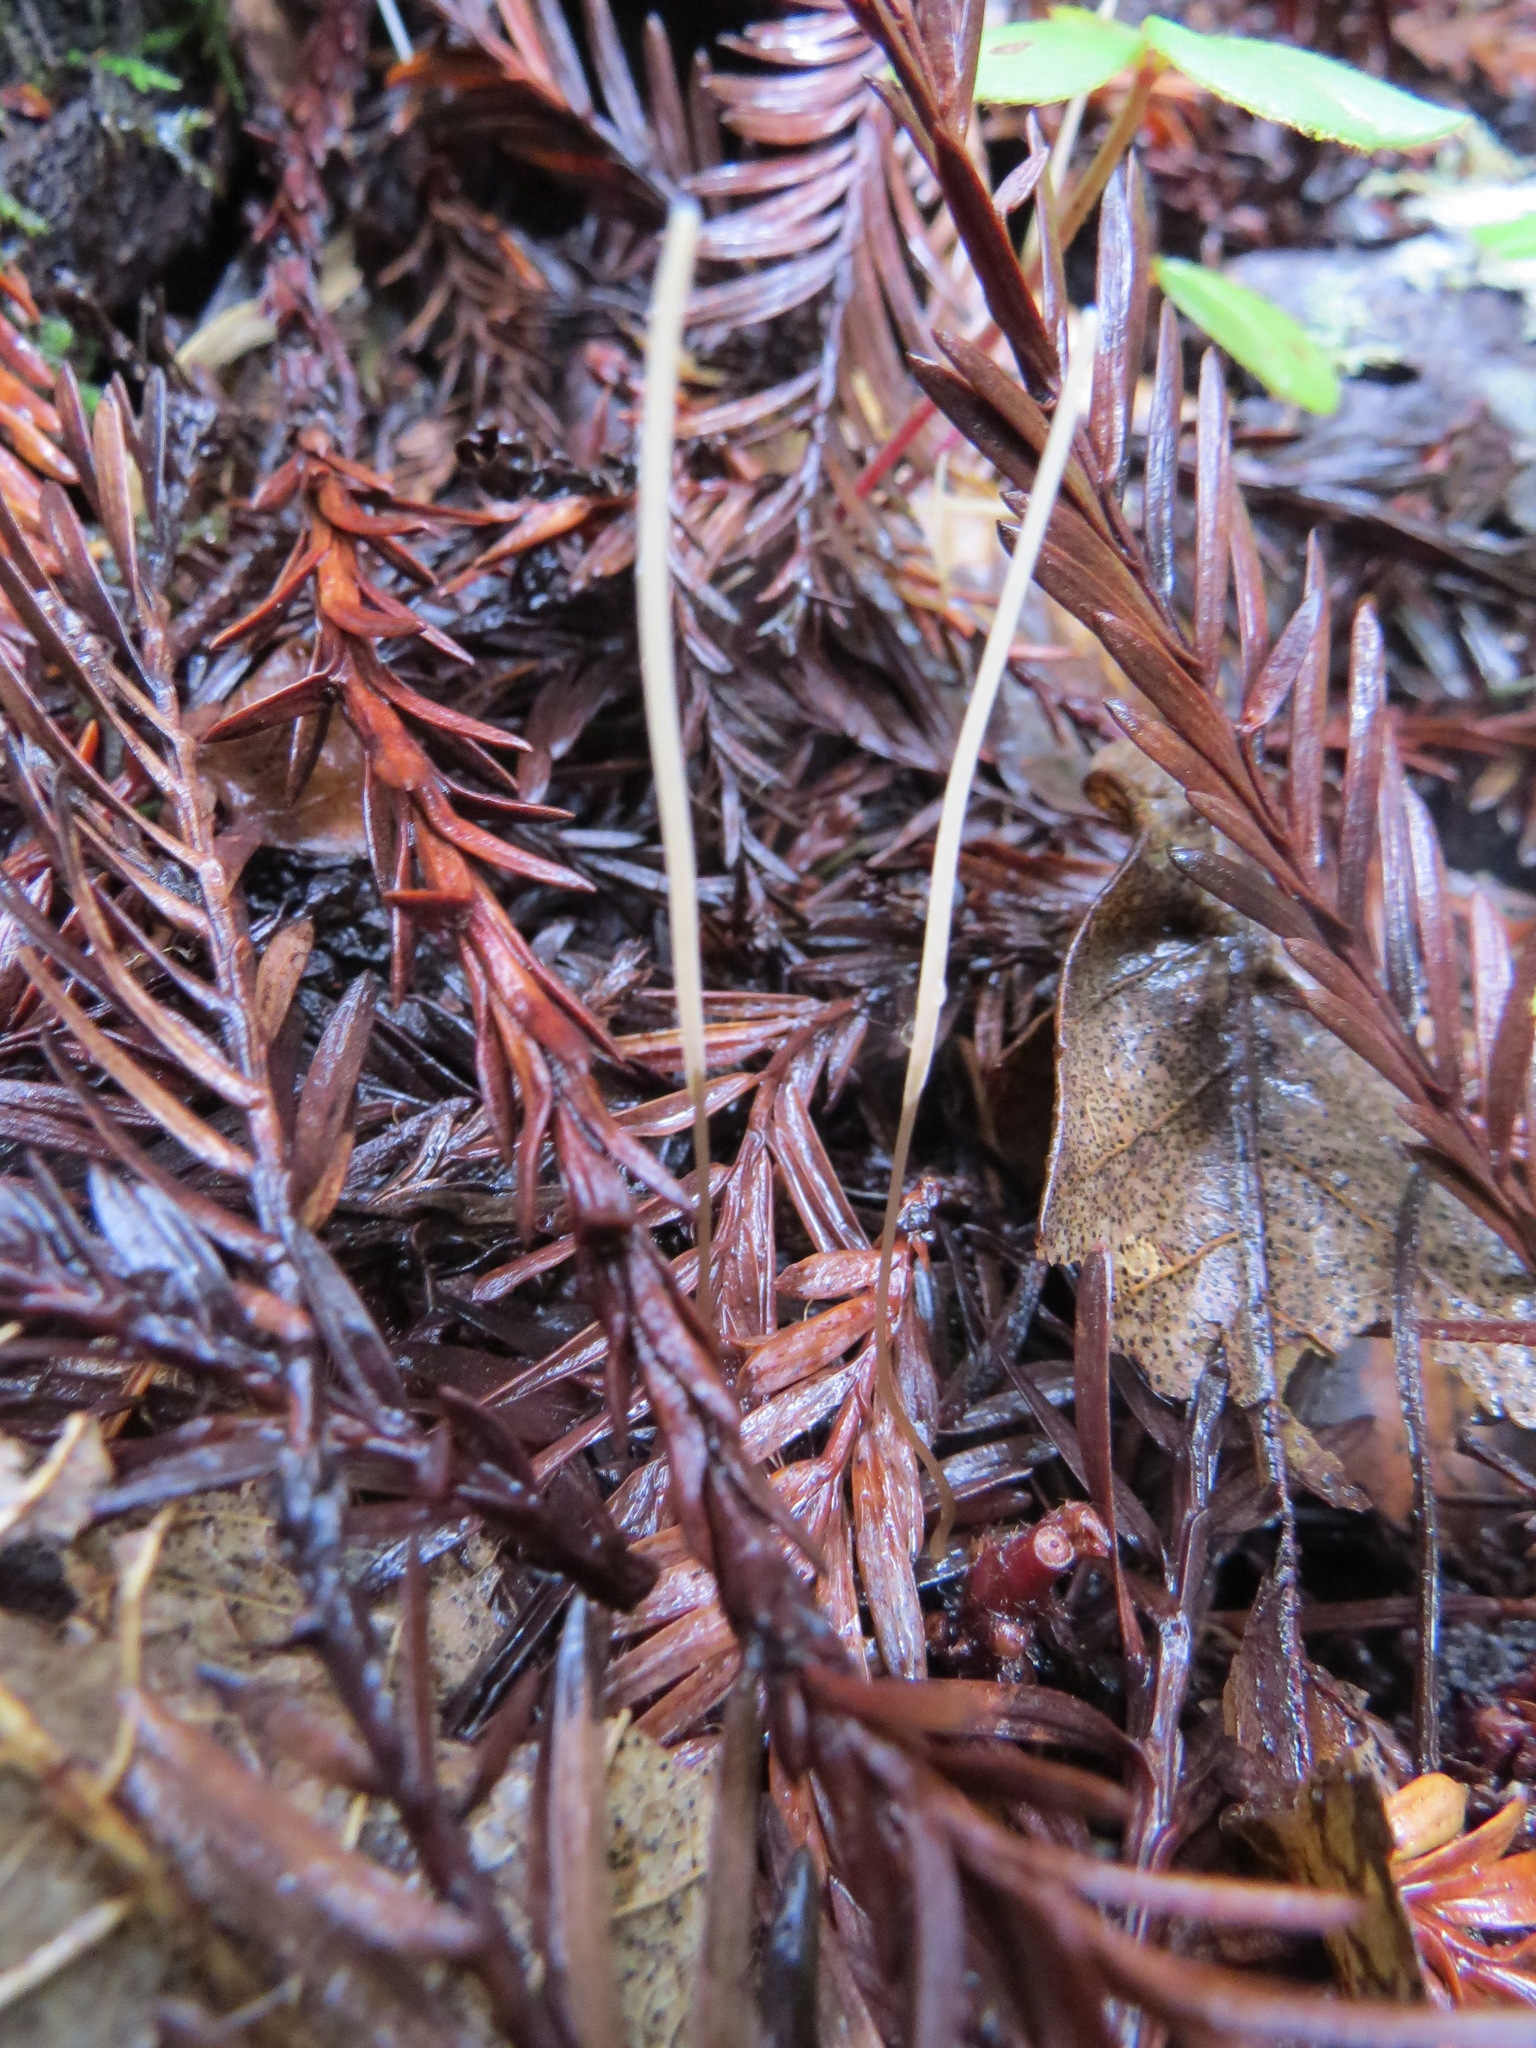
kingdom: Fungi
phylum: Basidiomycota
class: Agaricomycetes
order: Agaricales
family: Typhulaceae
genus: Typhula
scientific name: Typhula juncea
